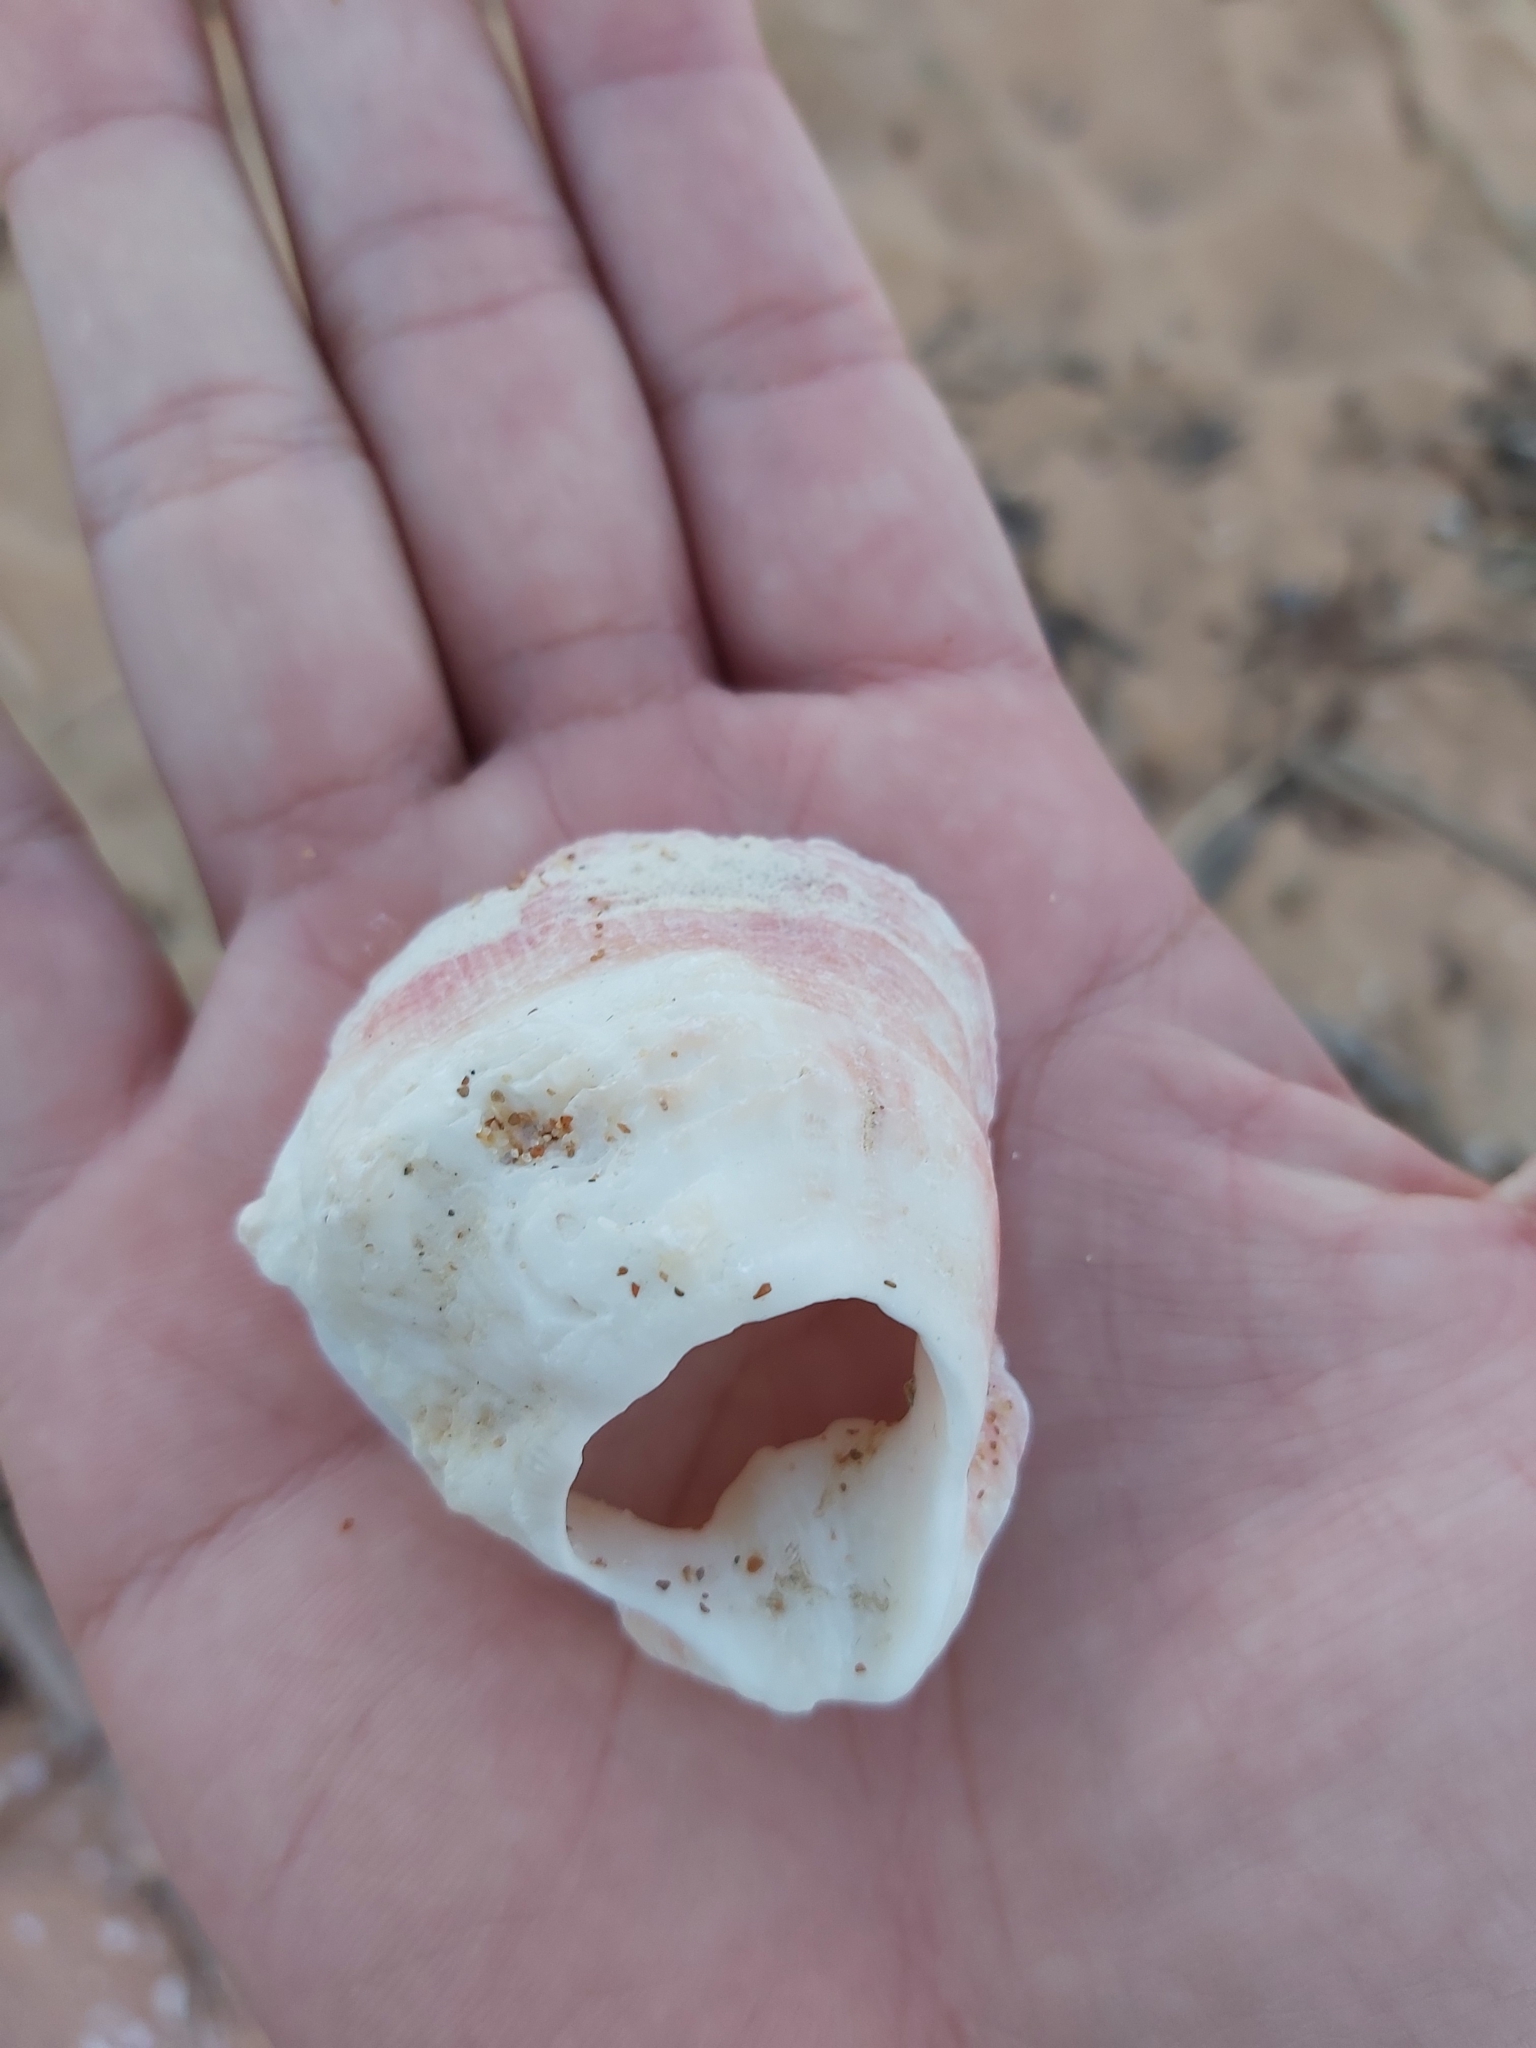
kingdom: Animalia
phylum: Mollusca
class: Bivalvia
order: Pectinida
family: Spondylidae
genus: Spondylus
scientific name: Spondylus tenellus
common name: Scarlet thorny oyster
